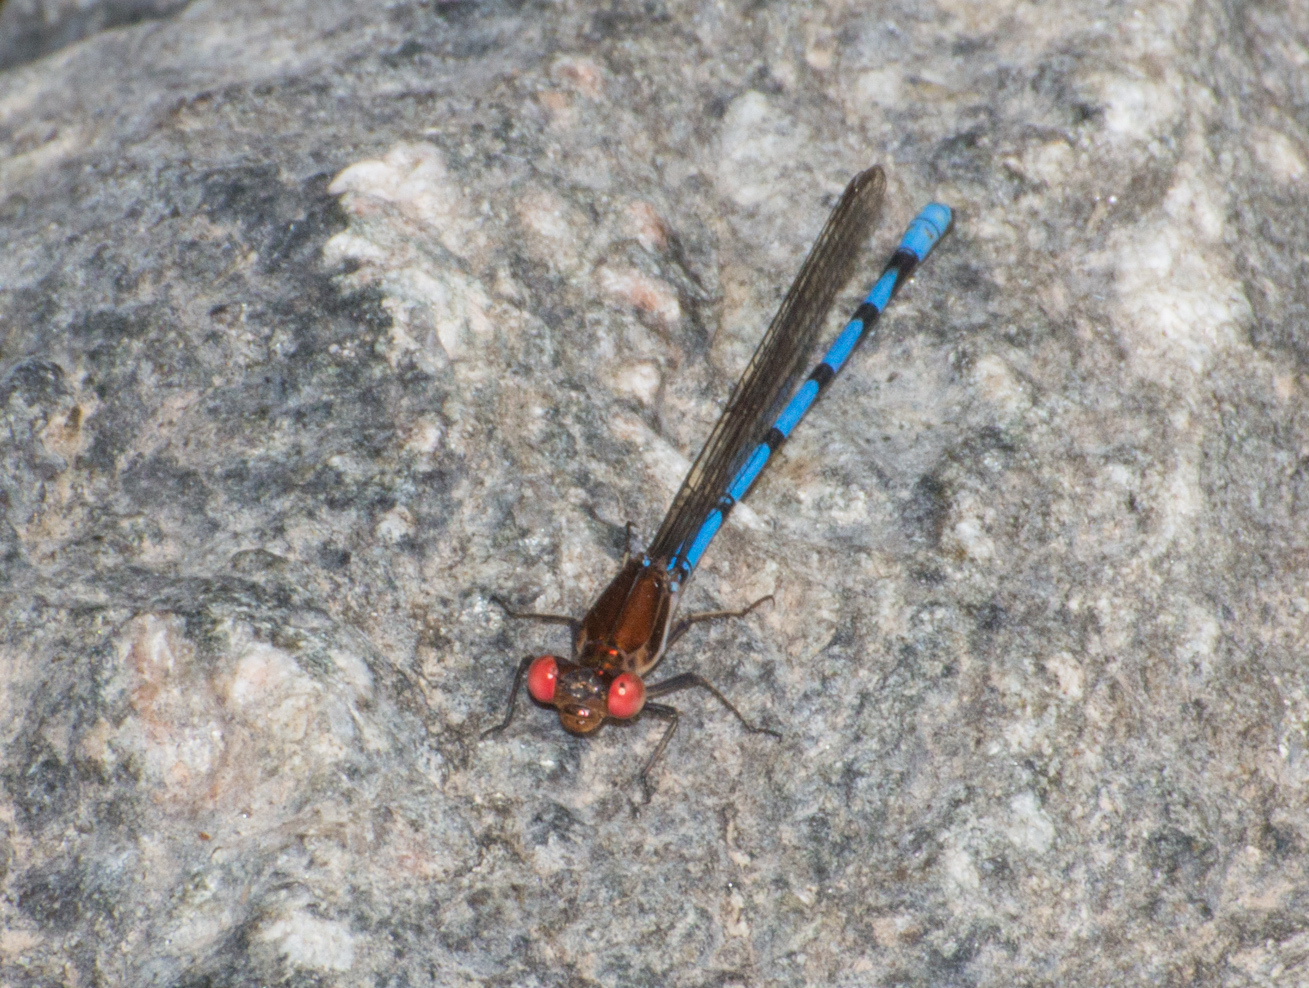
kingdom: Animalia
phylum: Arthropoda
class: Insecta
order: Odonata
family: Coenagrionidae
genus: Argia
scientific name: Argia joergenseni
